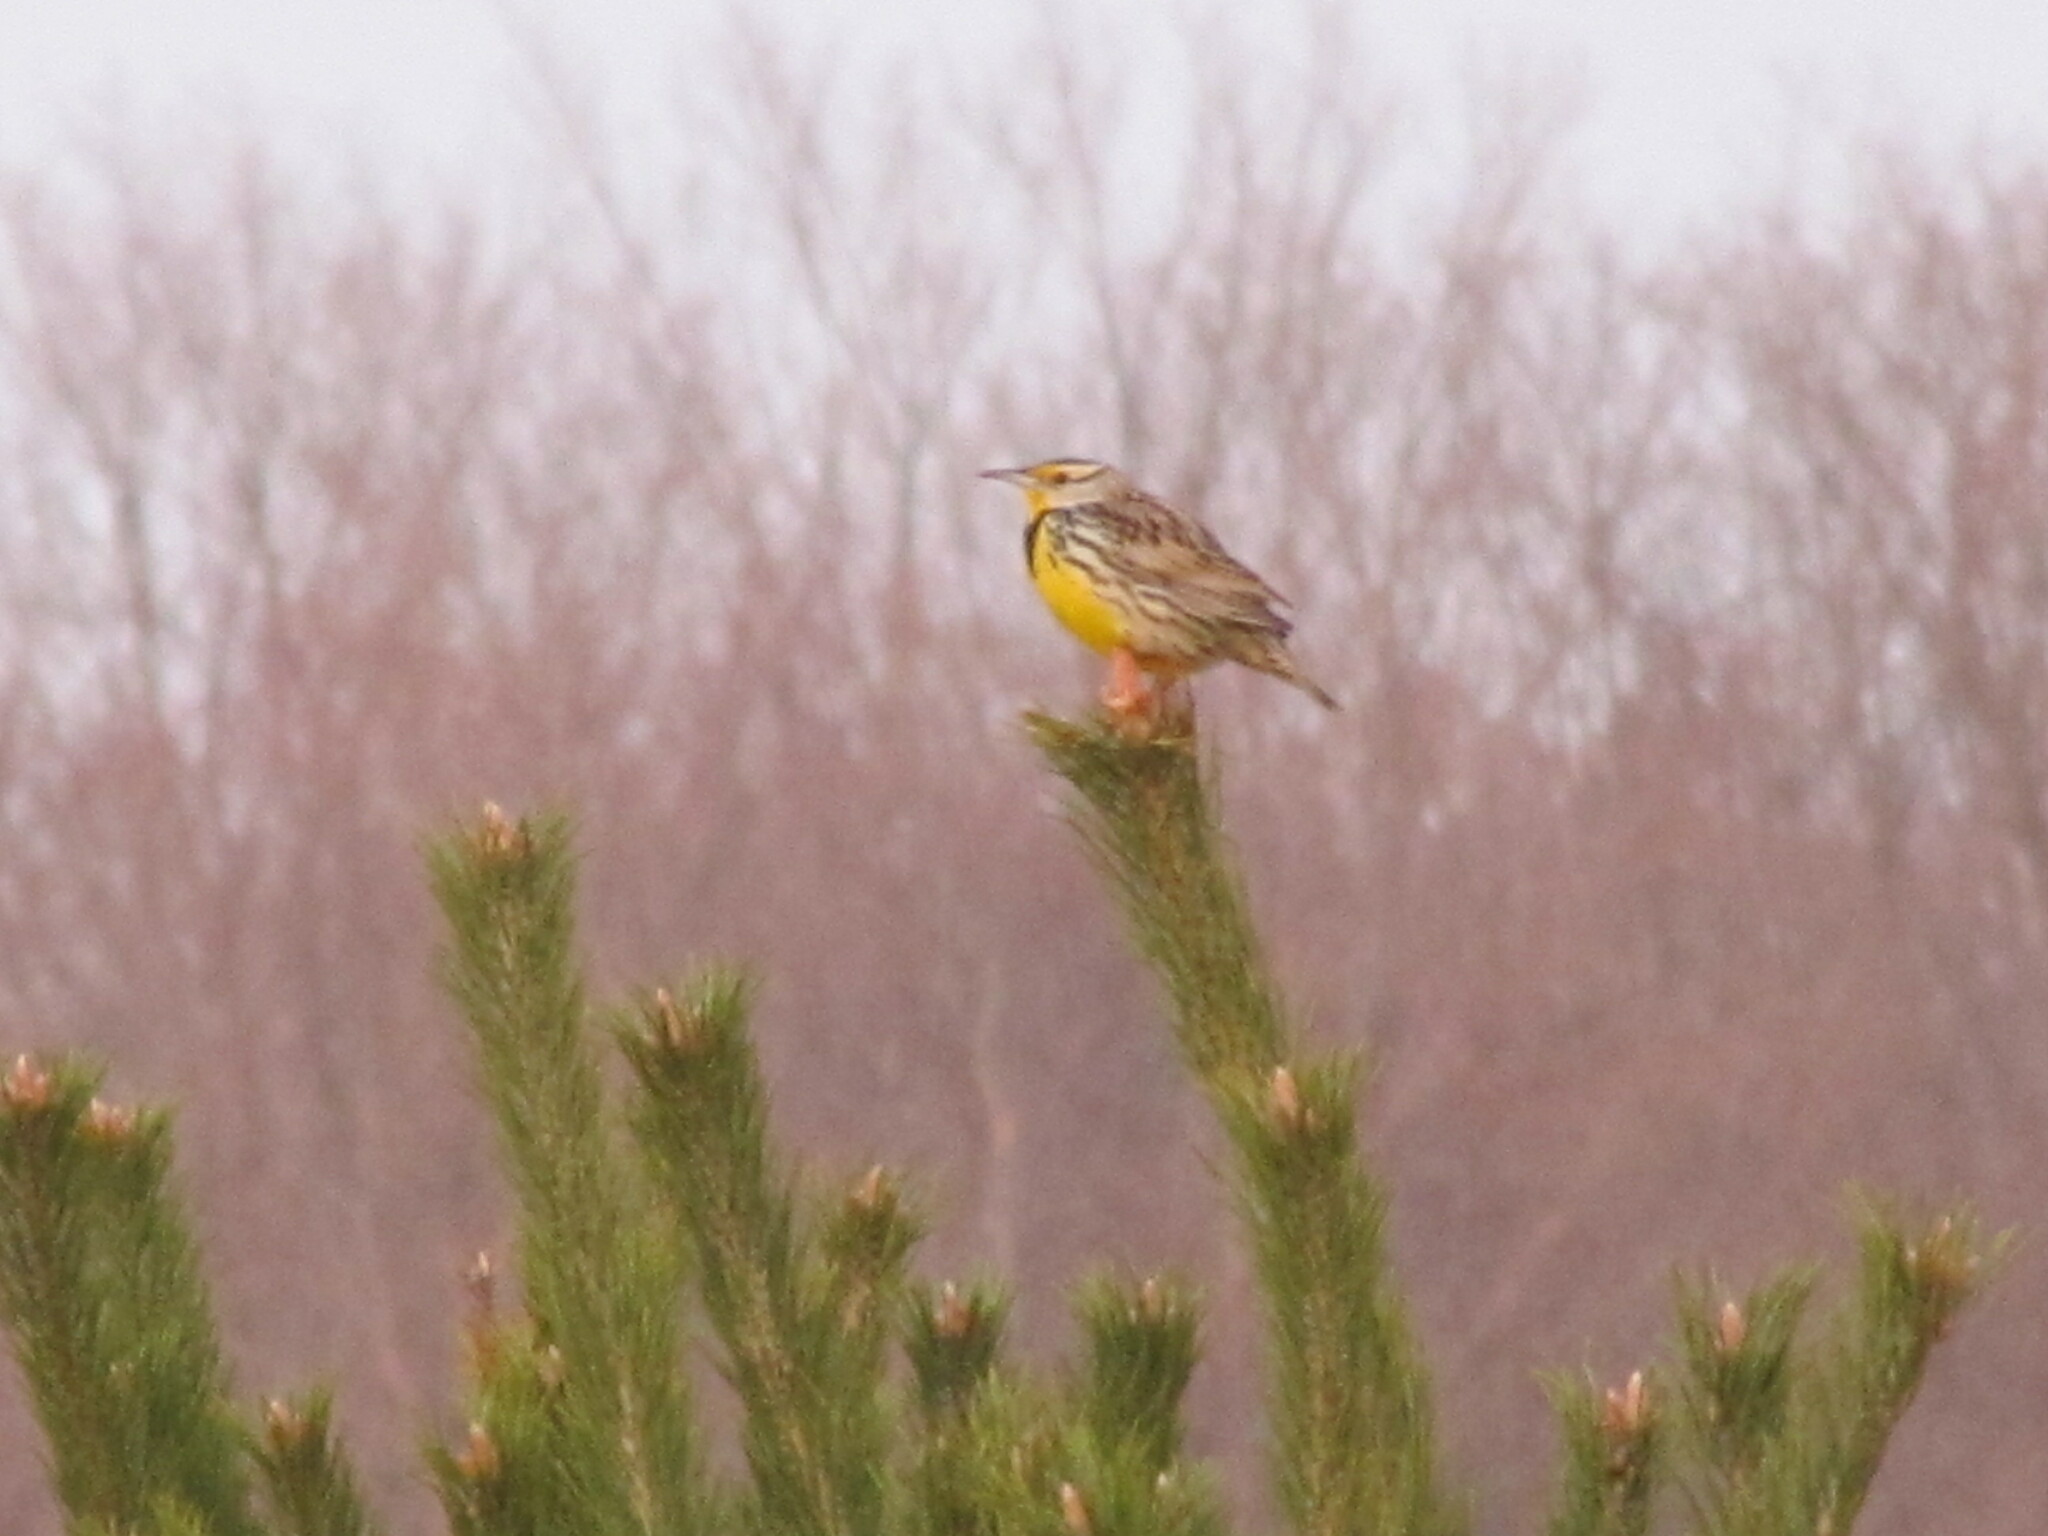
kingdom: Animalia
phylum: Chordata
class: Aves
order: Passeriformes
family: Icteridae
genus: Sturnella
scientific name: Sturnella magna
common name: Eastern meadowlark
